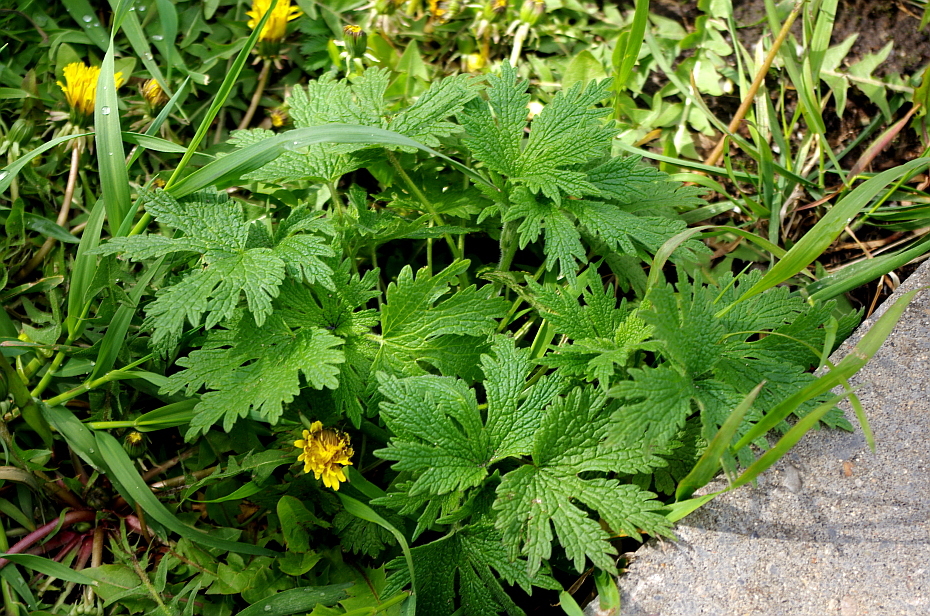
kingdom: Plantae
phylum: Tracheophyta
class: Magnoliopsida
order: Lamiales
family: Lamiaceae
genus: Leonurus
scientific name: Leonurus quinquelobatus
